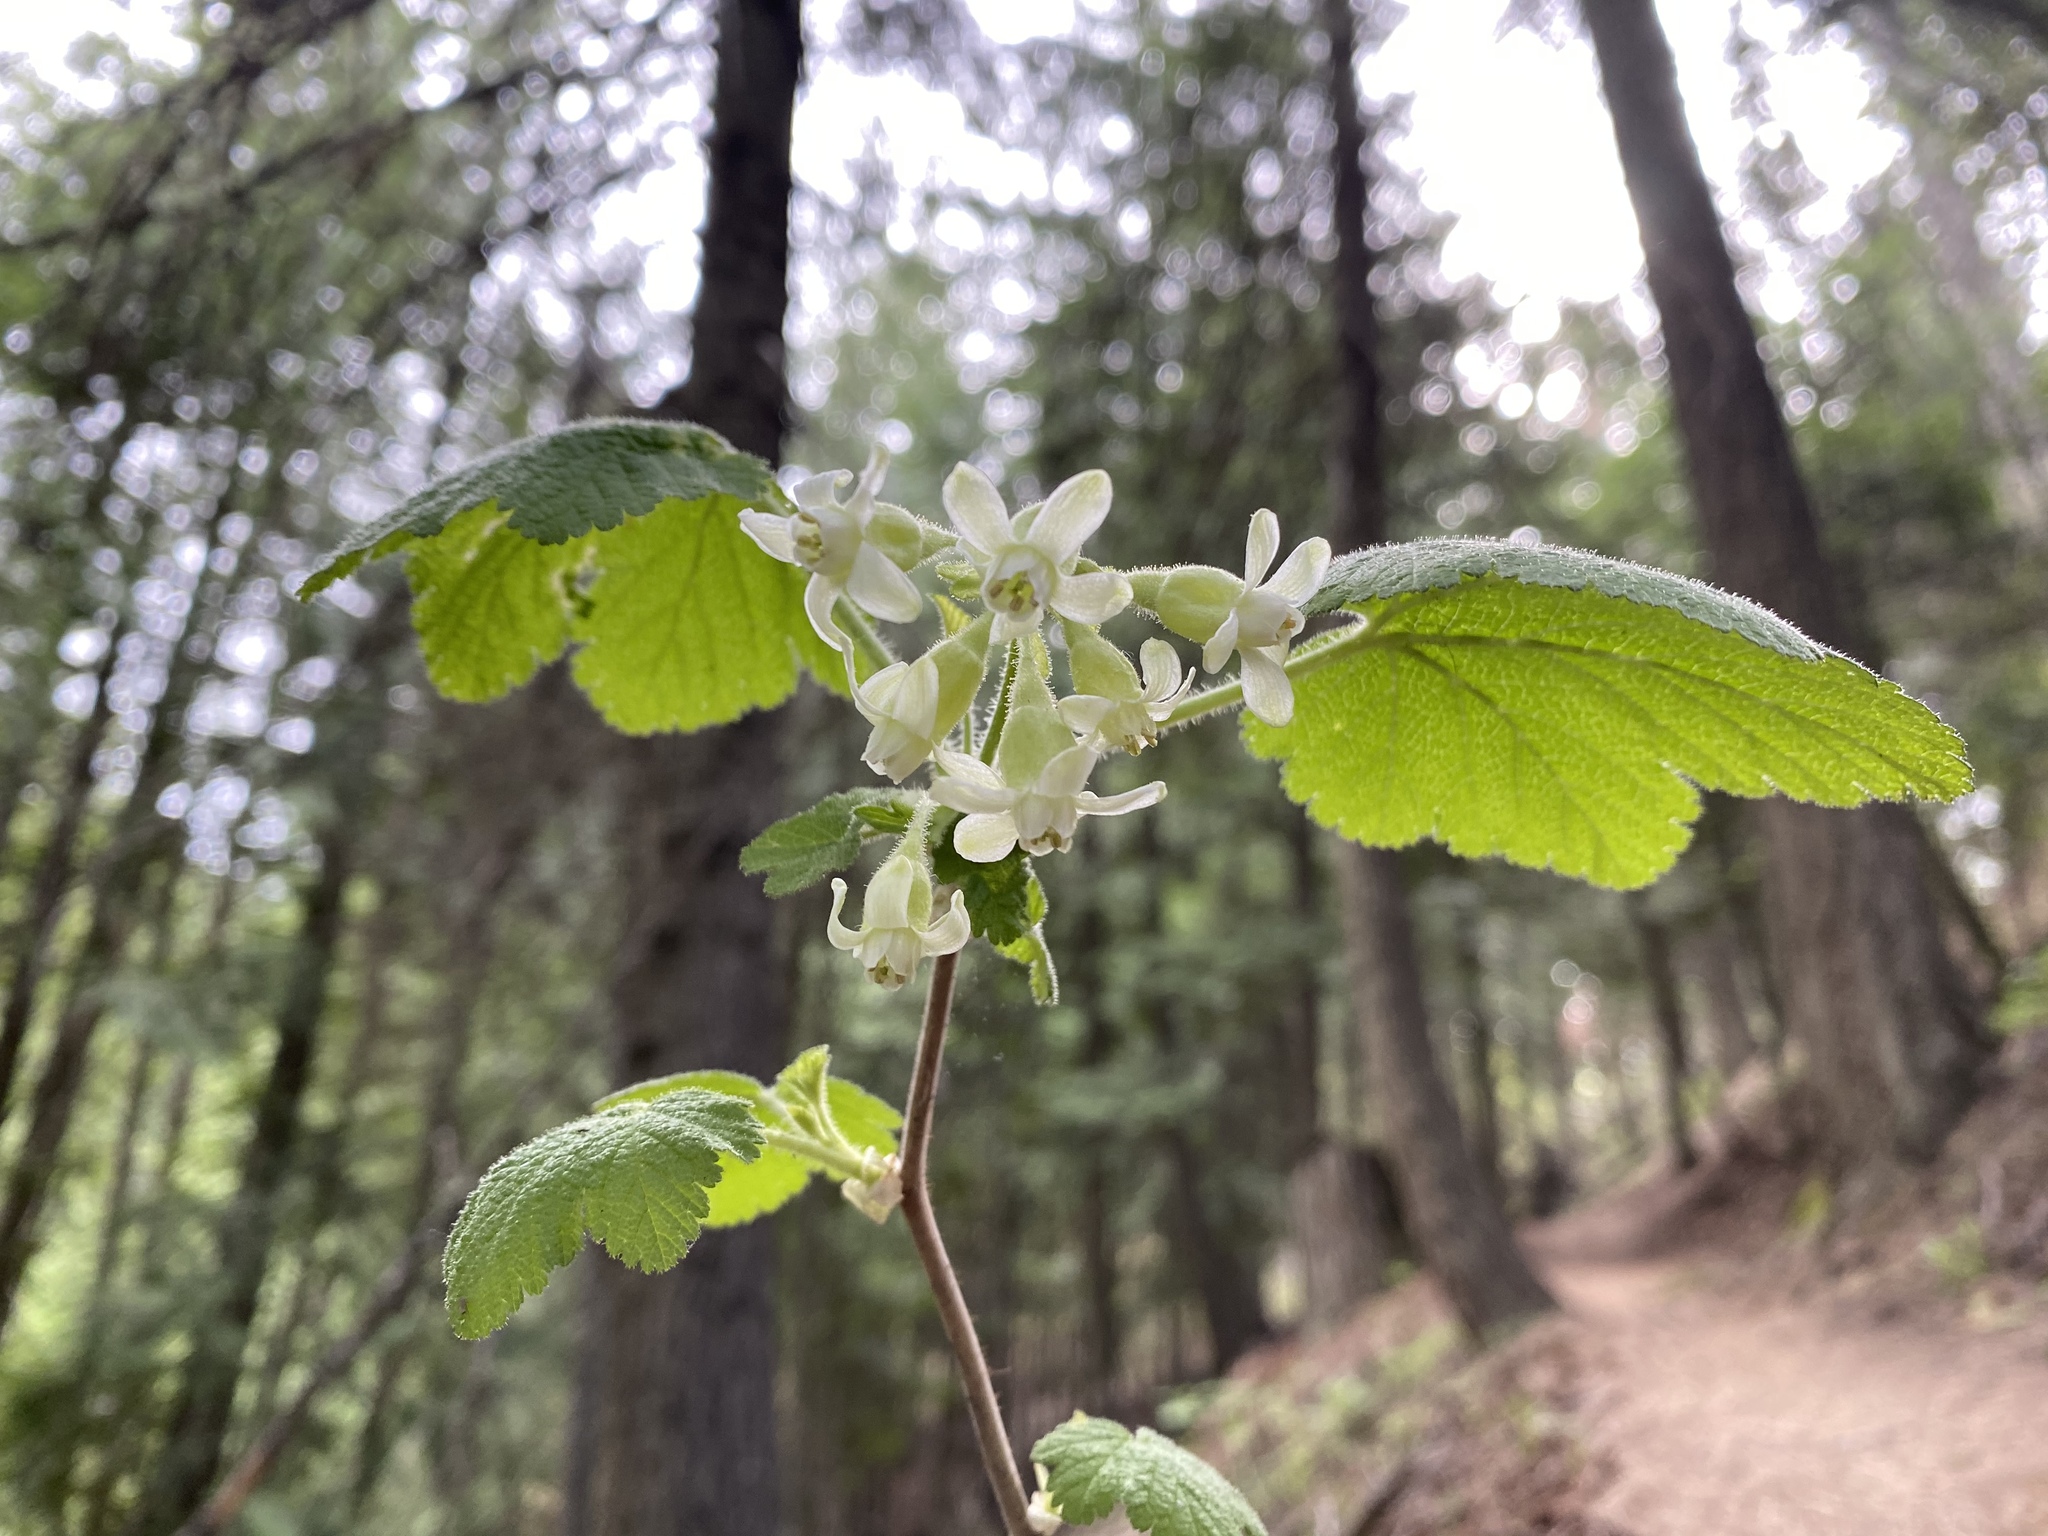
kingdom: Plantae
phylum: Tracheophyta
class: Magnoliopsida
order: Saxifragales
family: Grossulariaceae
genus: Ribes
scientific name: Ribes viscosissimum
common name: Sticky currant
